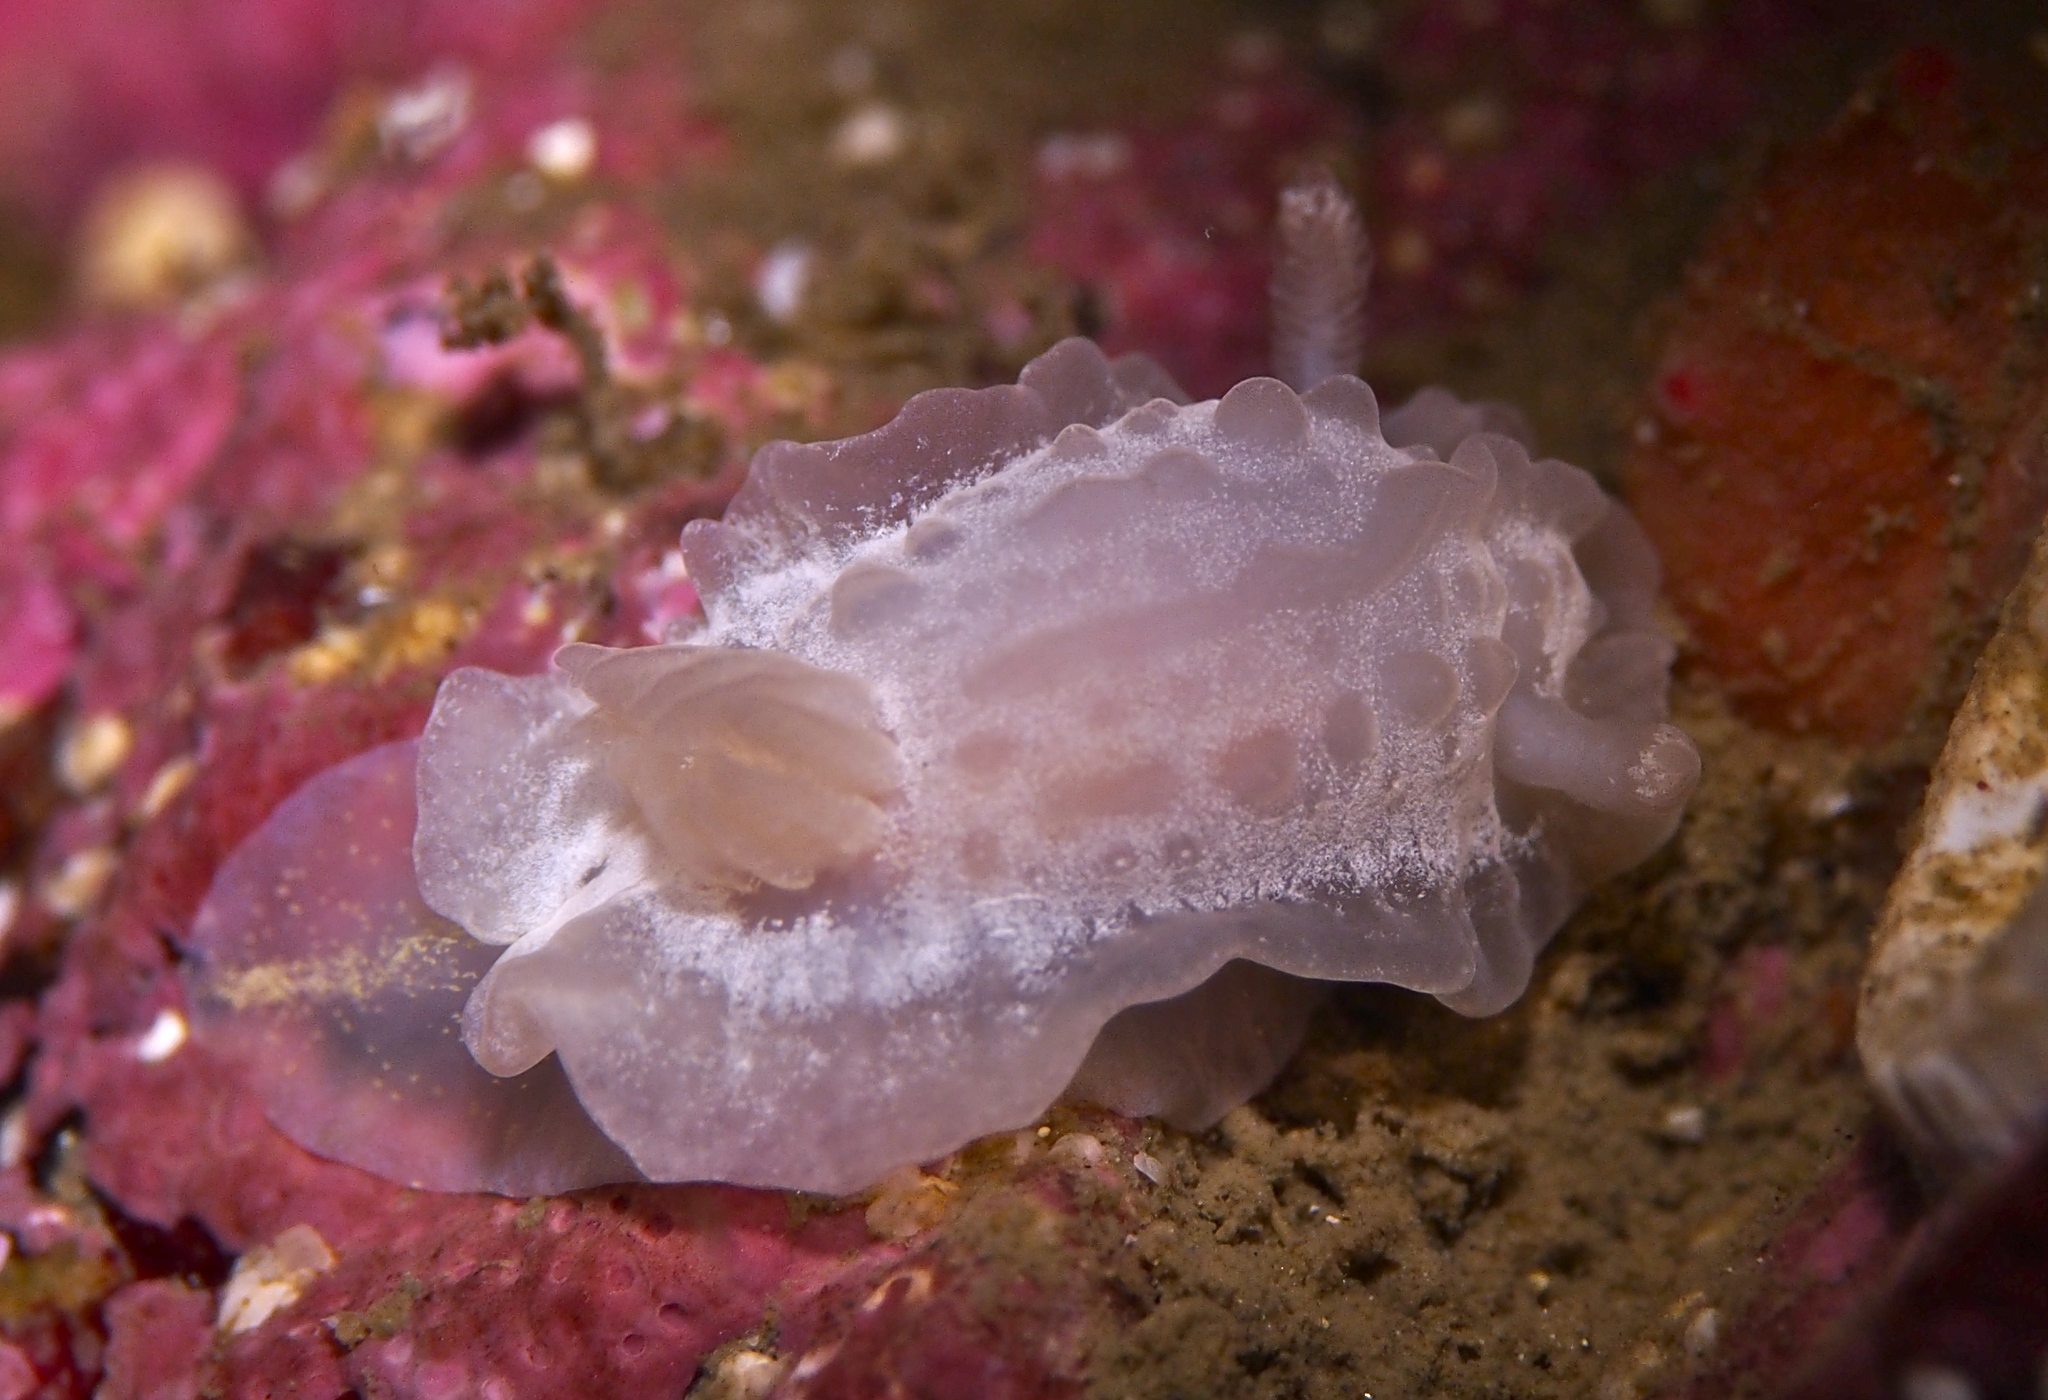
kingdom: Animalia
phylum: Mollusca
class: Gastropoda
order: Nudibranchia
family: Goniodorididae
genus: Okenia
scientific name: Okenia
